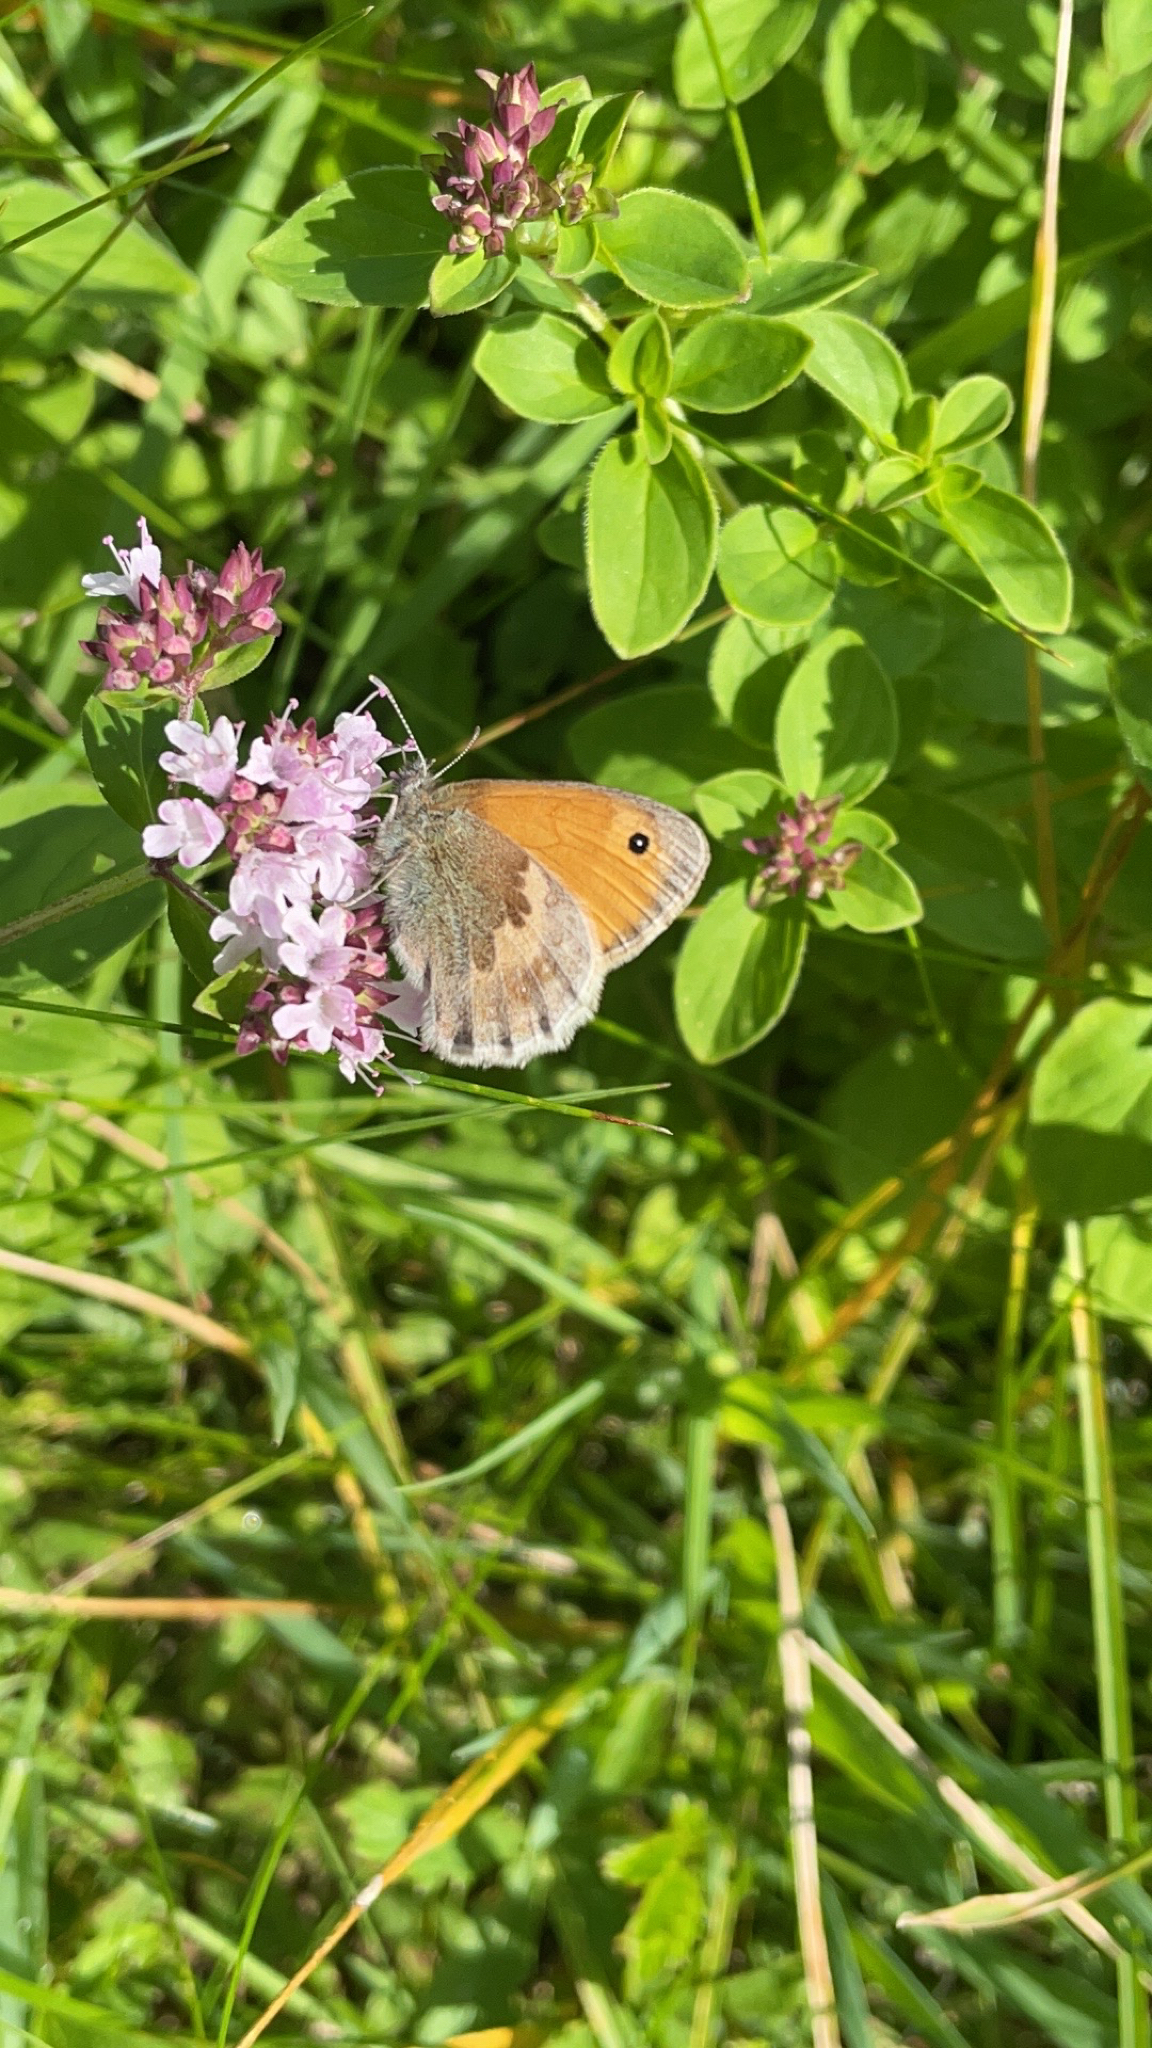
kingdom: Animalia
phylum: Arthropoda
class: Insecta
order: Lepidoptera
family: Nymphalidae
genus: Coenonympha
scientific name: Coenonympha pamphilus
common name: Small heath
